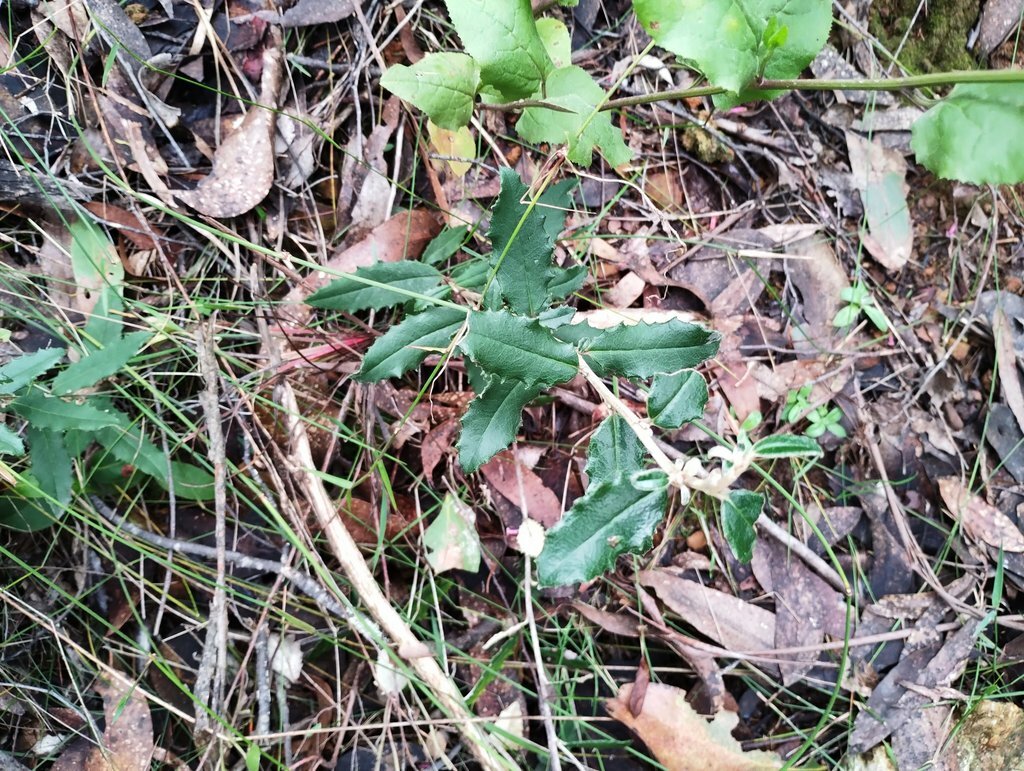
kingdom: Plantae
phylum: Tracheophyta
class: Magnoliopsida
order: Asterales
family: Asteraceae
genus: Olearia
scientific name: Olearia erubescens
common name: Moth daisybush
